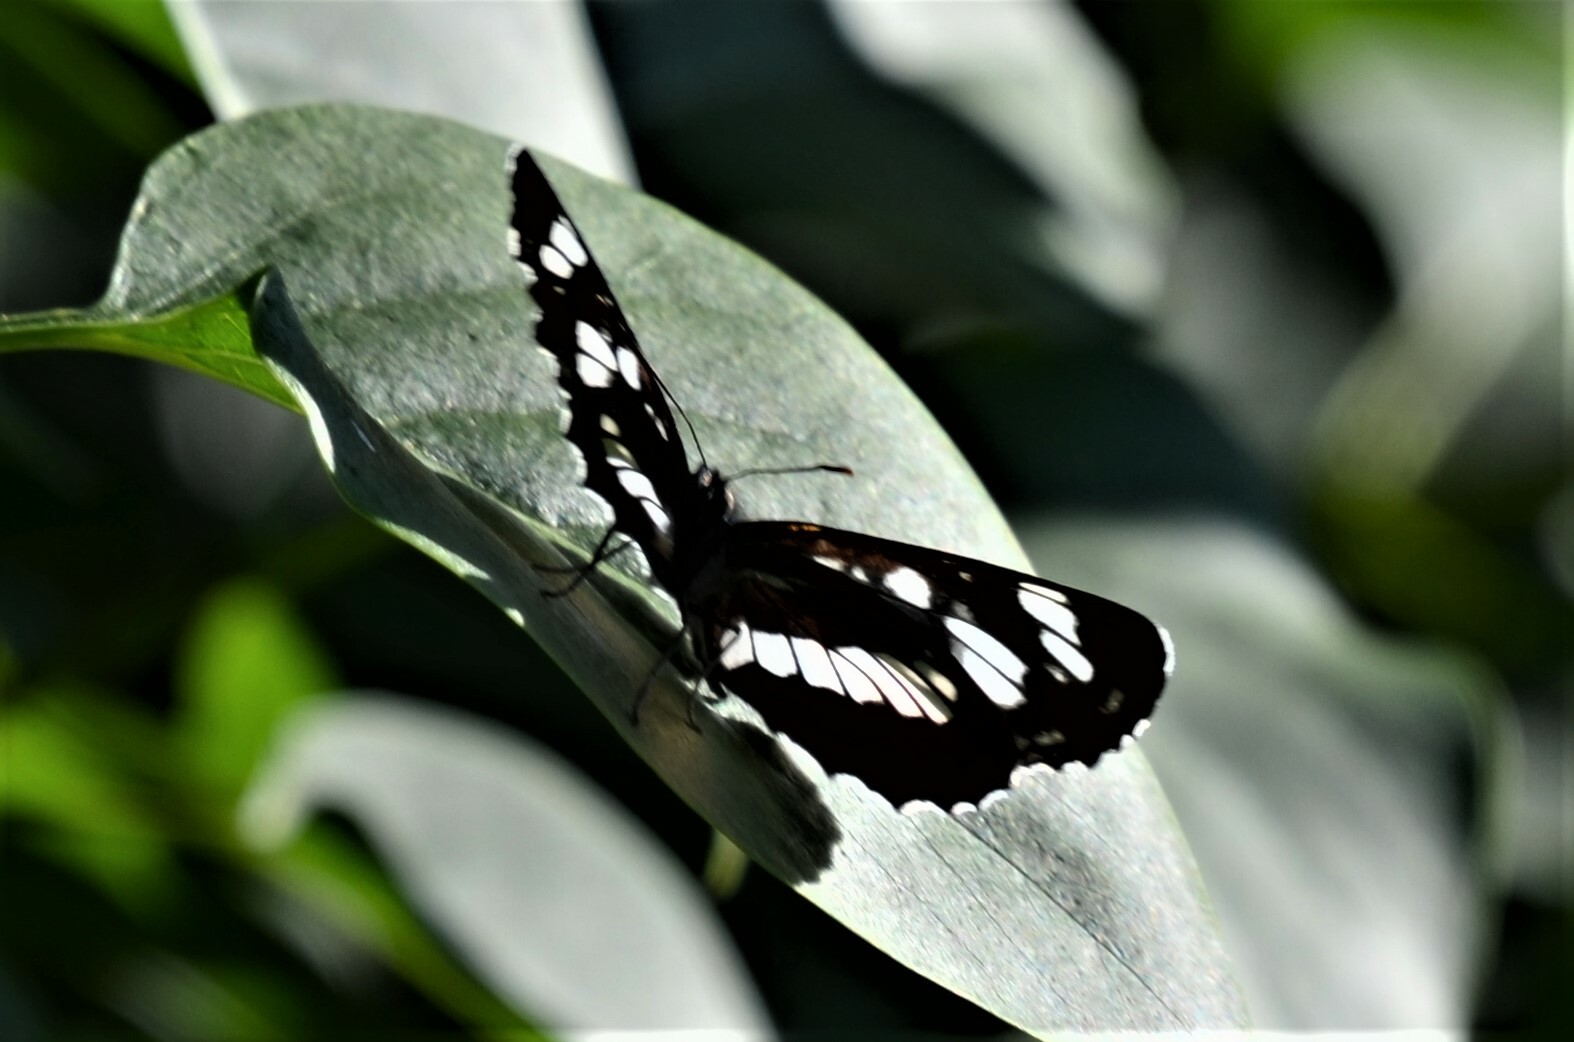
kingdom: Animalia
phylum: Arthropoda
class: Insecta
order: Lepidoptera
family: Nymphalidae
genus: Neptis
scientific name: Neptis rivularis
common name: Hungarian glider
